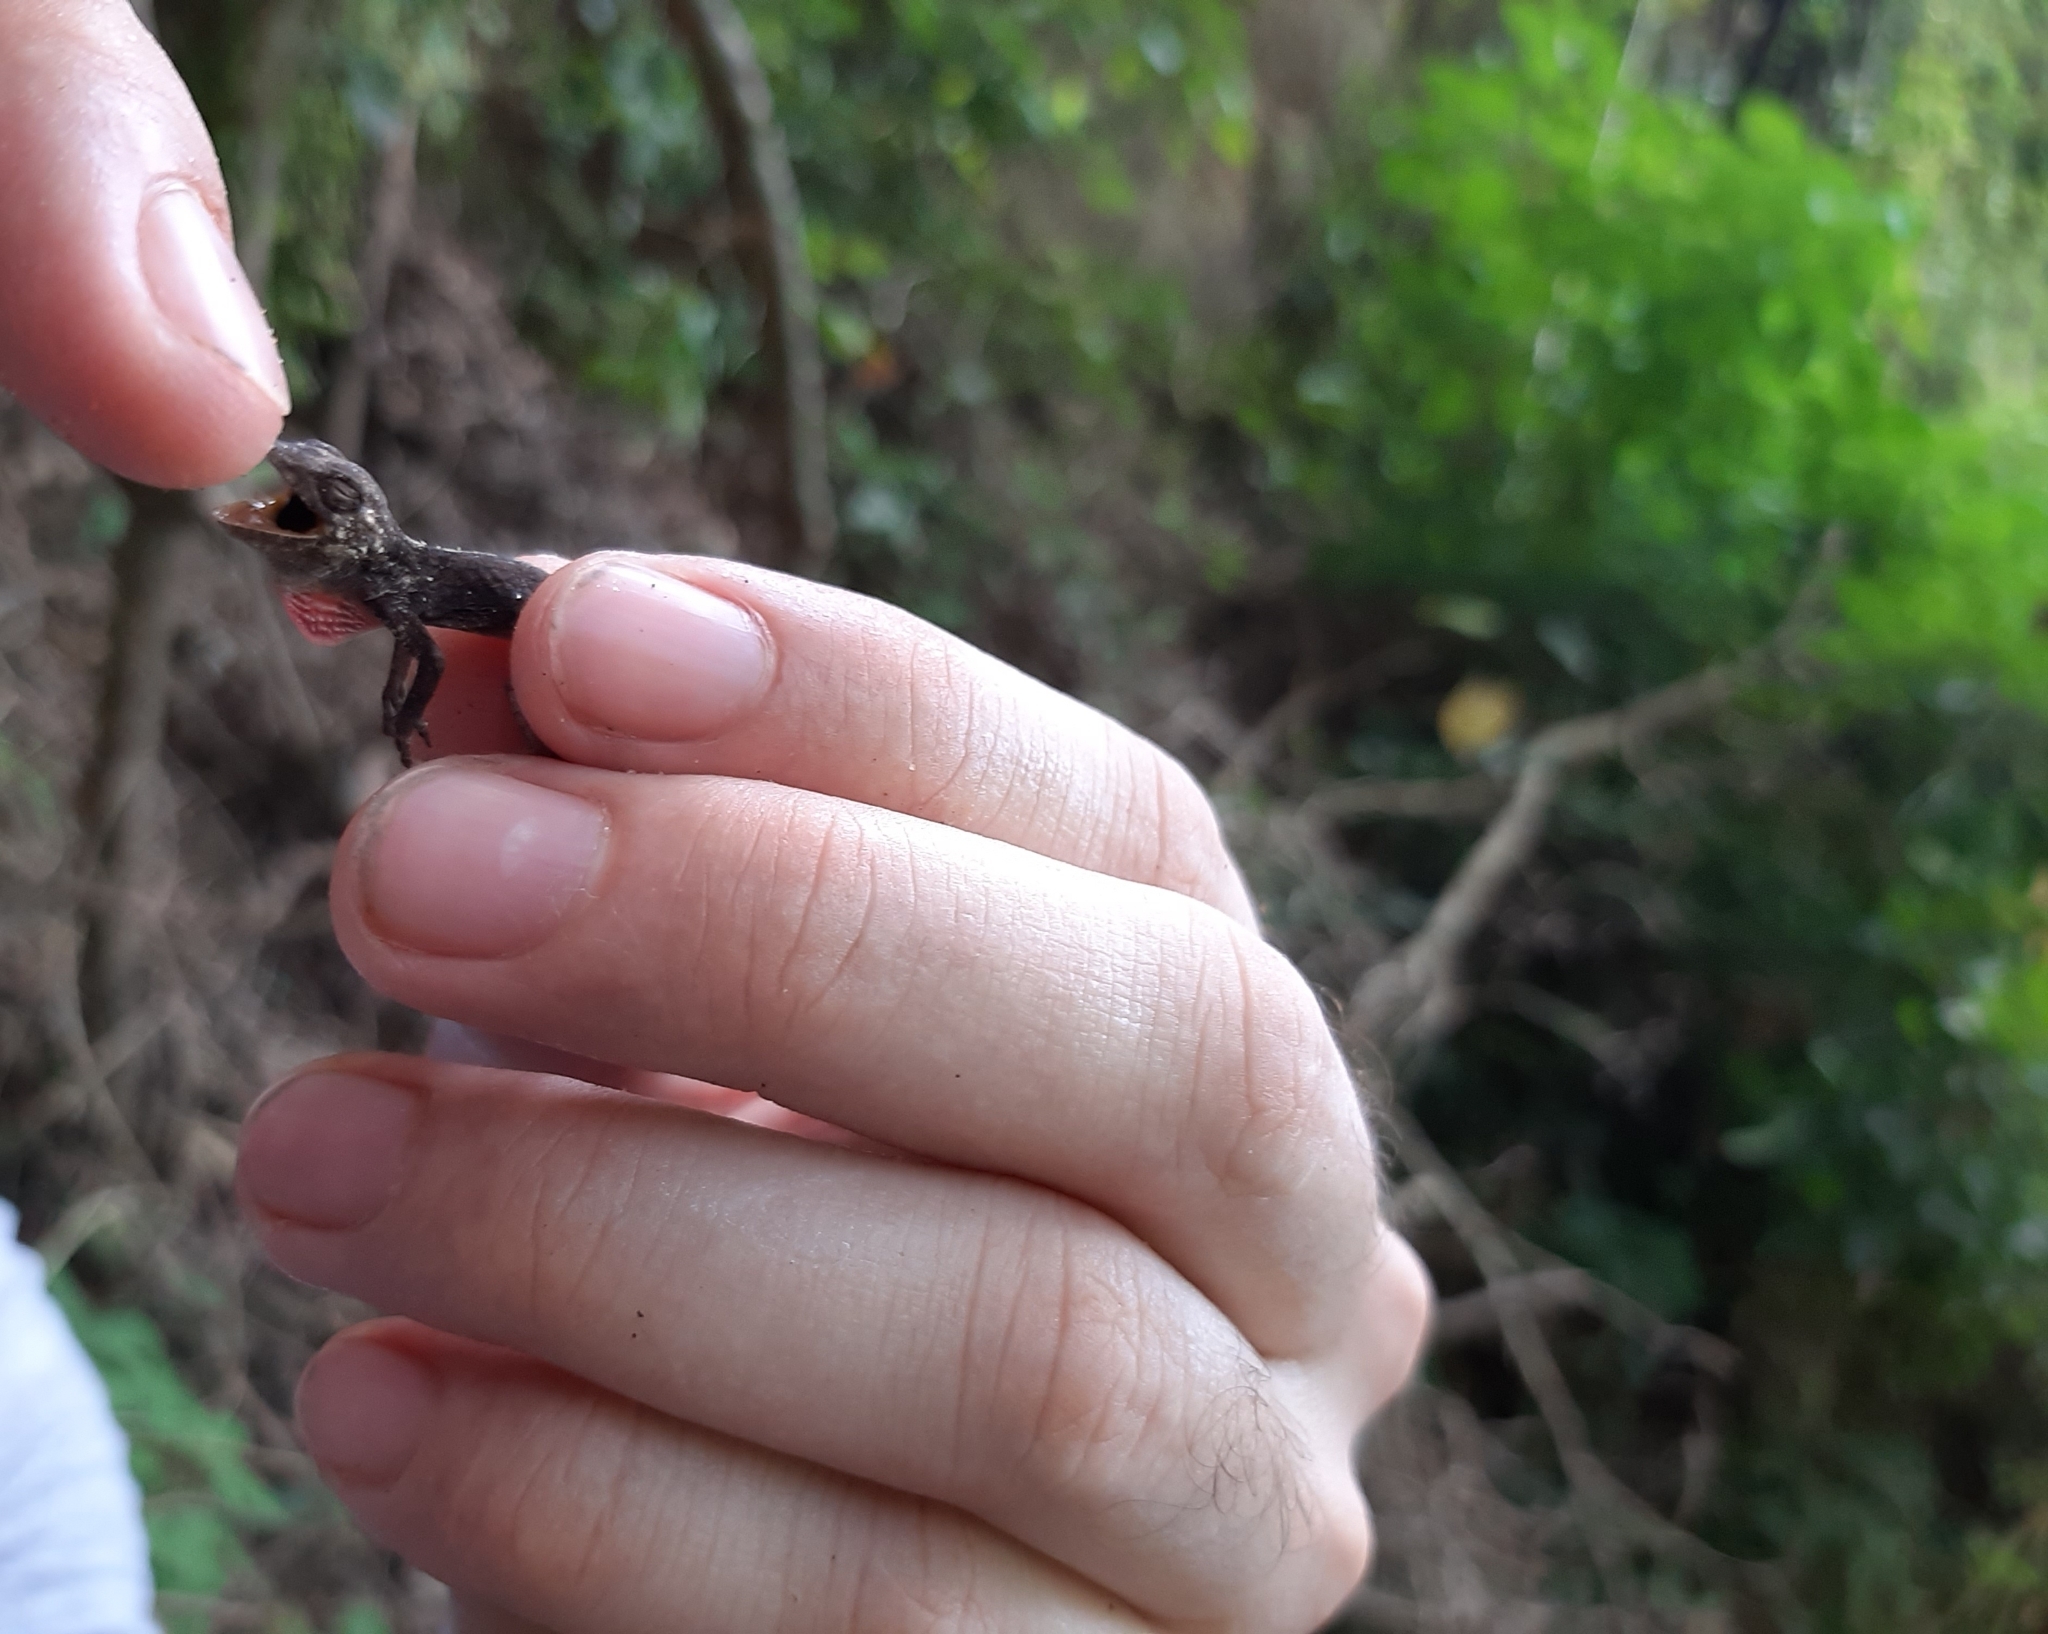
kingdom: Animalia
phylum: Chordata
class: Squamata
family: Dactyloidae
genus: Anolis
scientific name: Anolis sulcifrons
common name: Grooved anole
